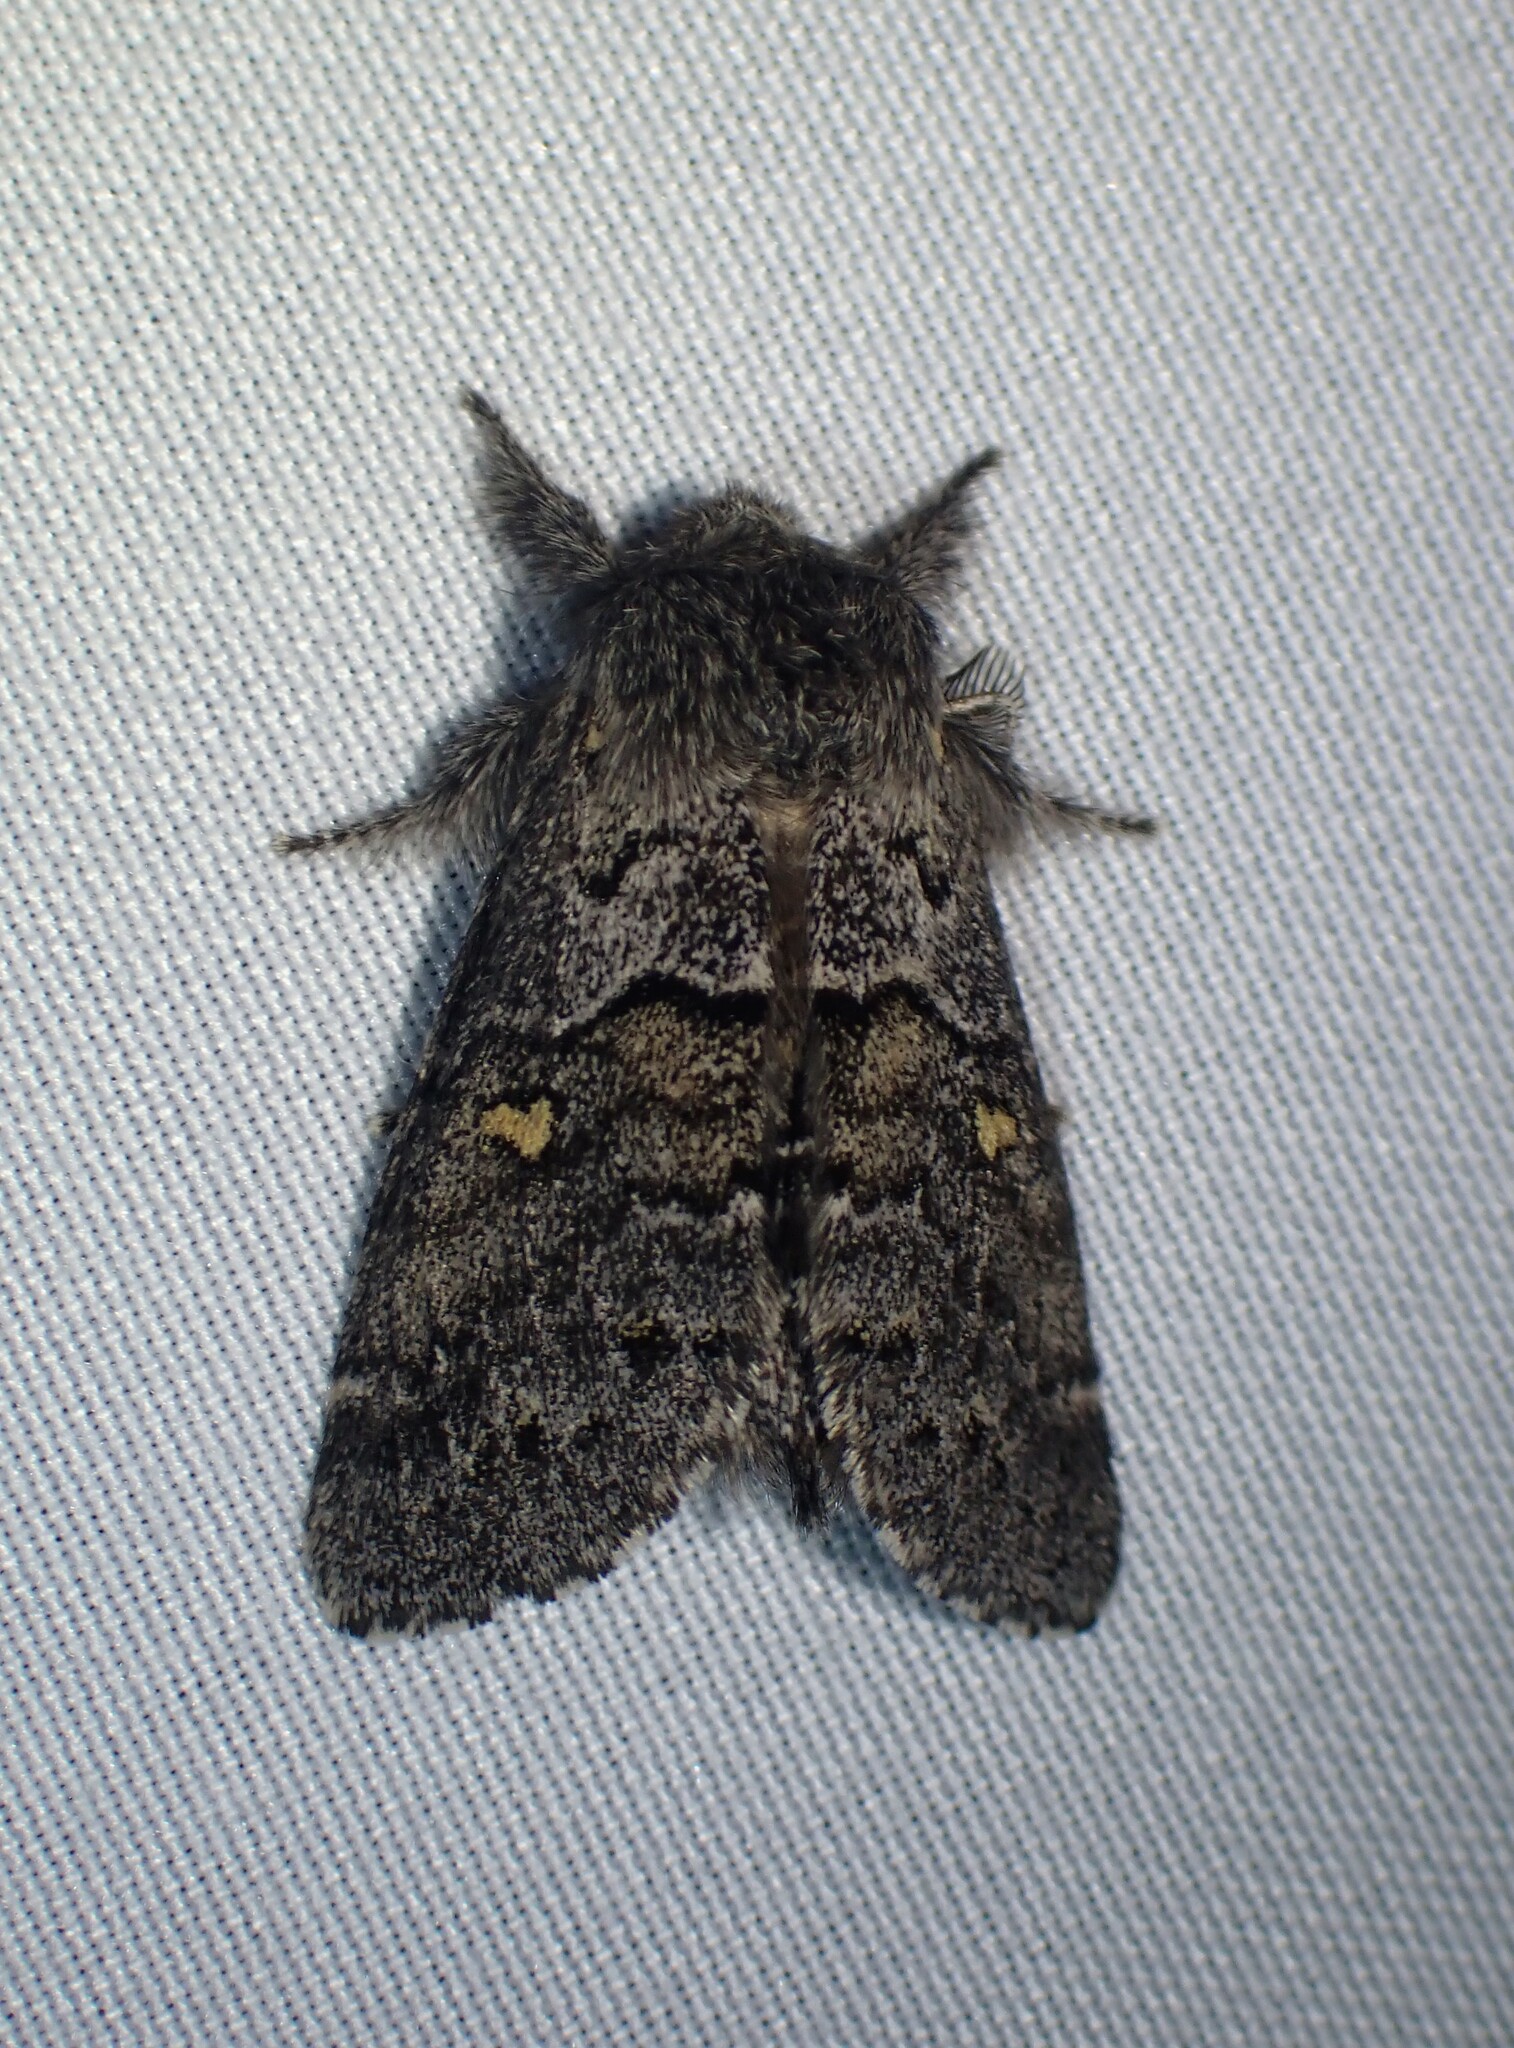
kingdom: Animalia
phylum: Arthropoda
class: Insecta
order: Lepidoptera
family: Notodontidae
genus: Gluphisia
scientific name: Gluphisia avimacula
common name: Four-spotted gluphisia moth
